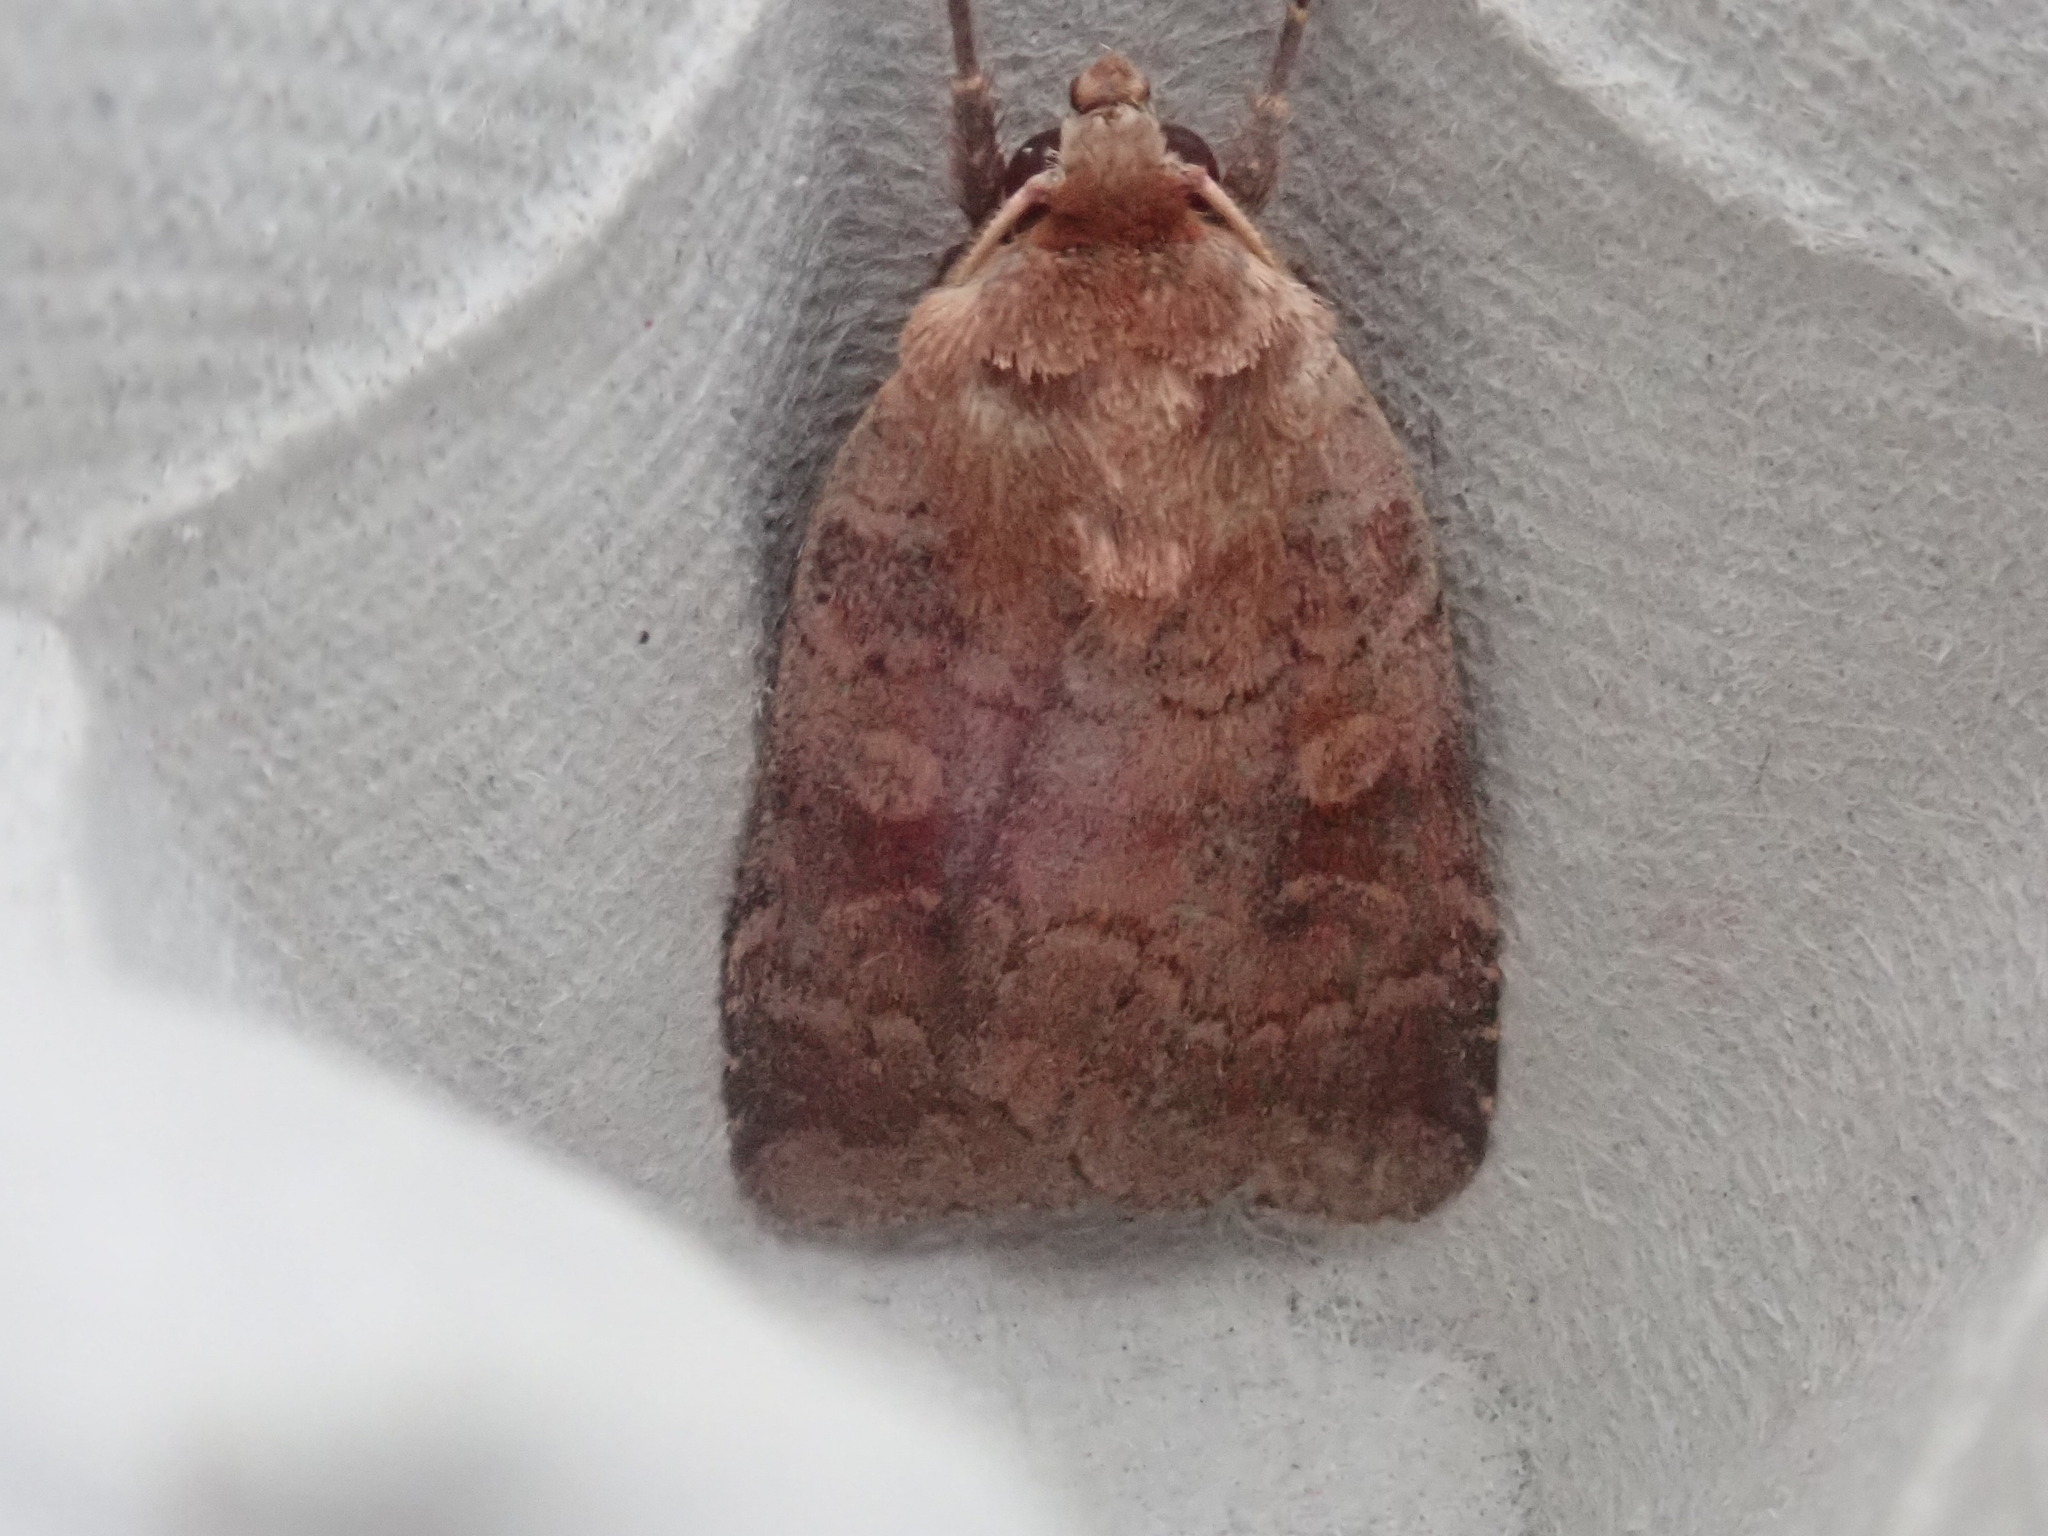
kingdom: Animalia
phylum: Arthropoda
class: Insecta
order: Lepidoptera
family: Noctuidae
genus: Lycophotia
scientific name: Lycophotia phyllophora
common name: Lycophotia moth
